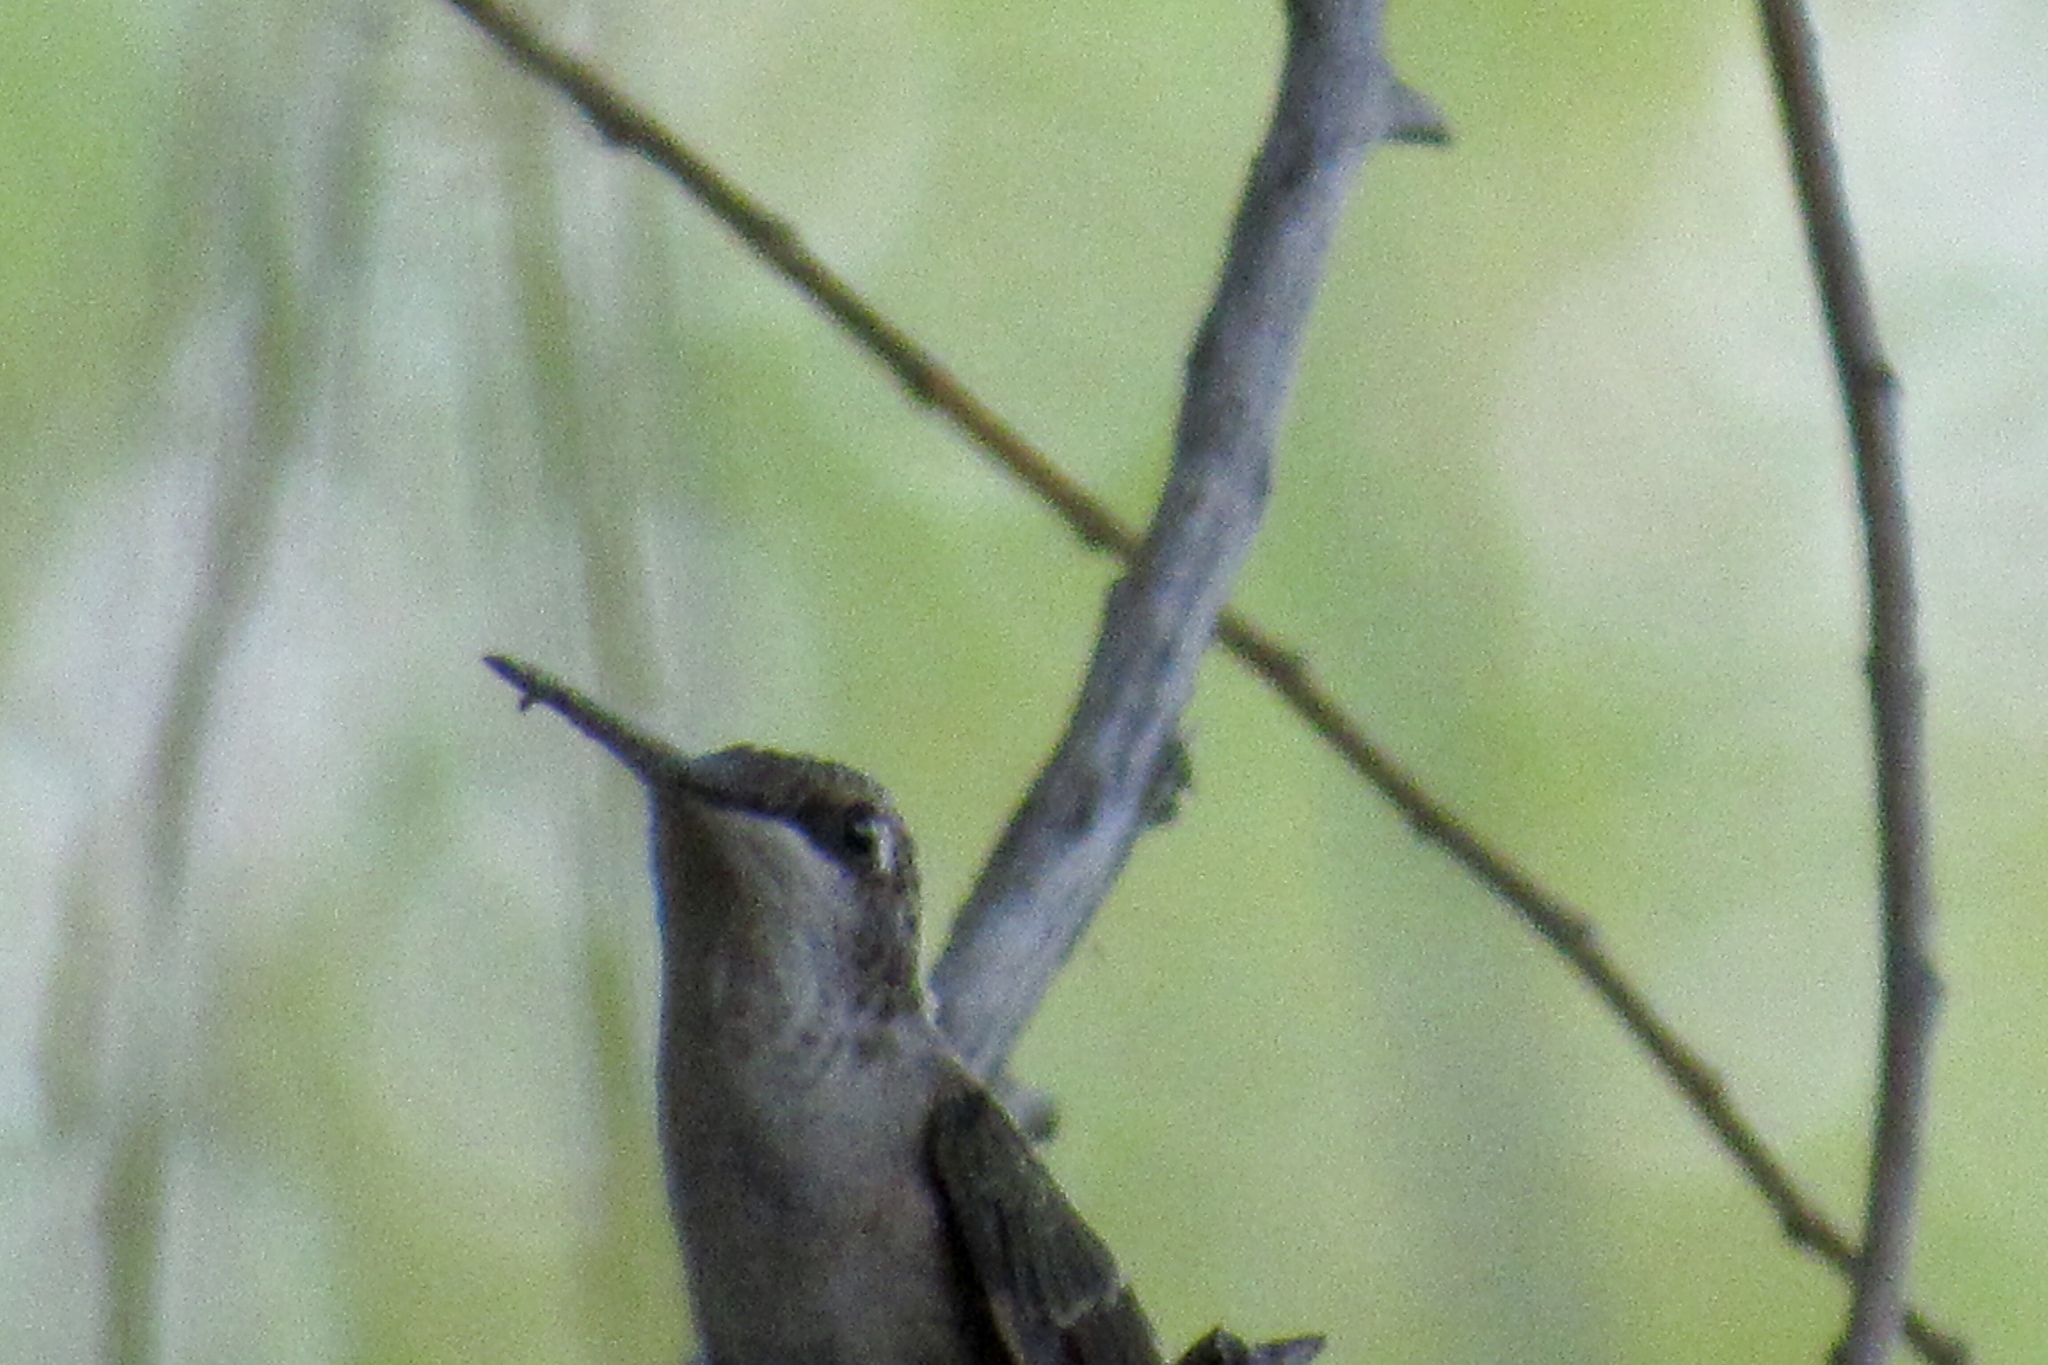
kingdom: Animalia
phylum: Chordata
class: Aves
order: Apodiformes
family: Trochilidae
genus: Archilochus
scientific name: Archilochus alexandri
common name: Black-chinned hummingbird
